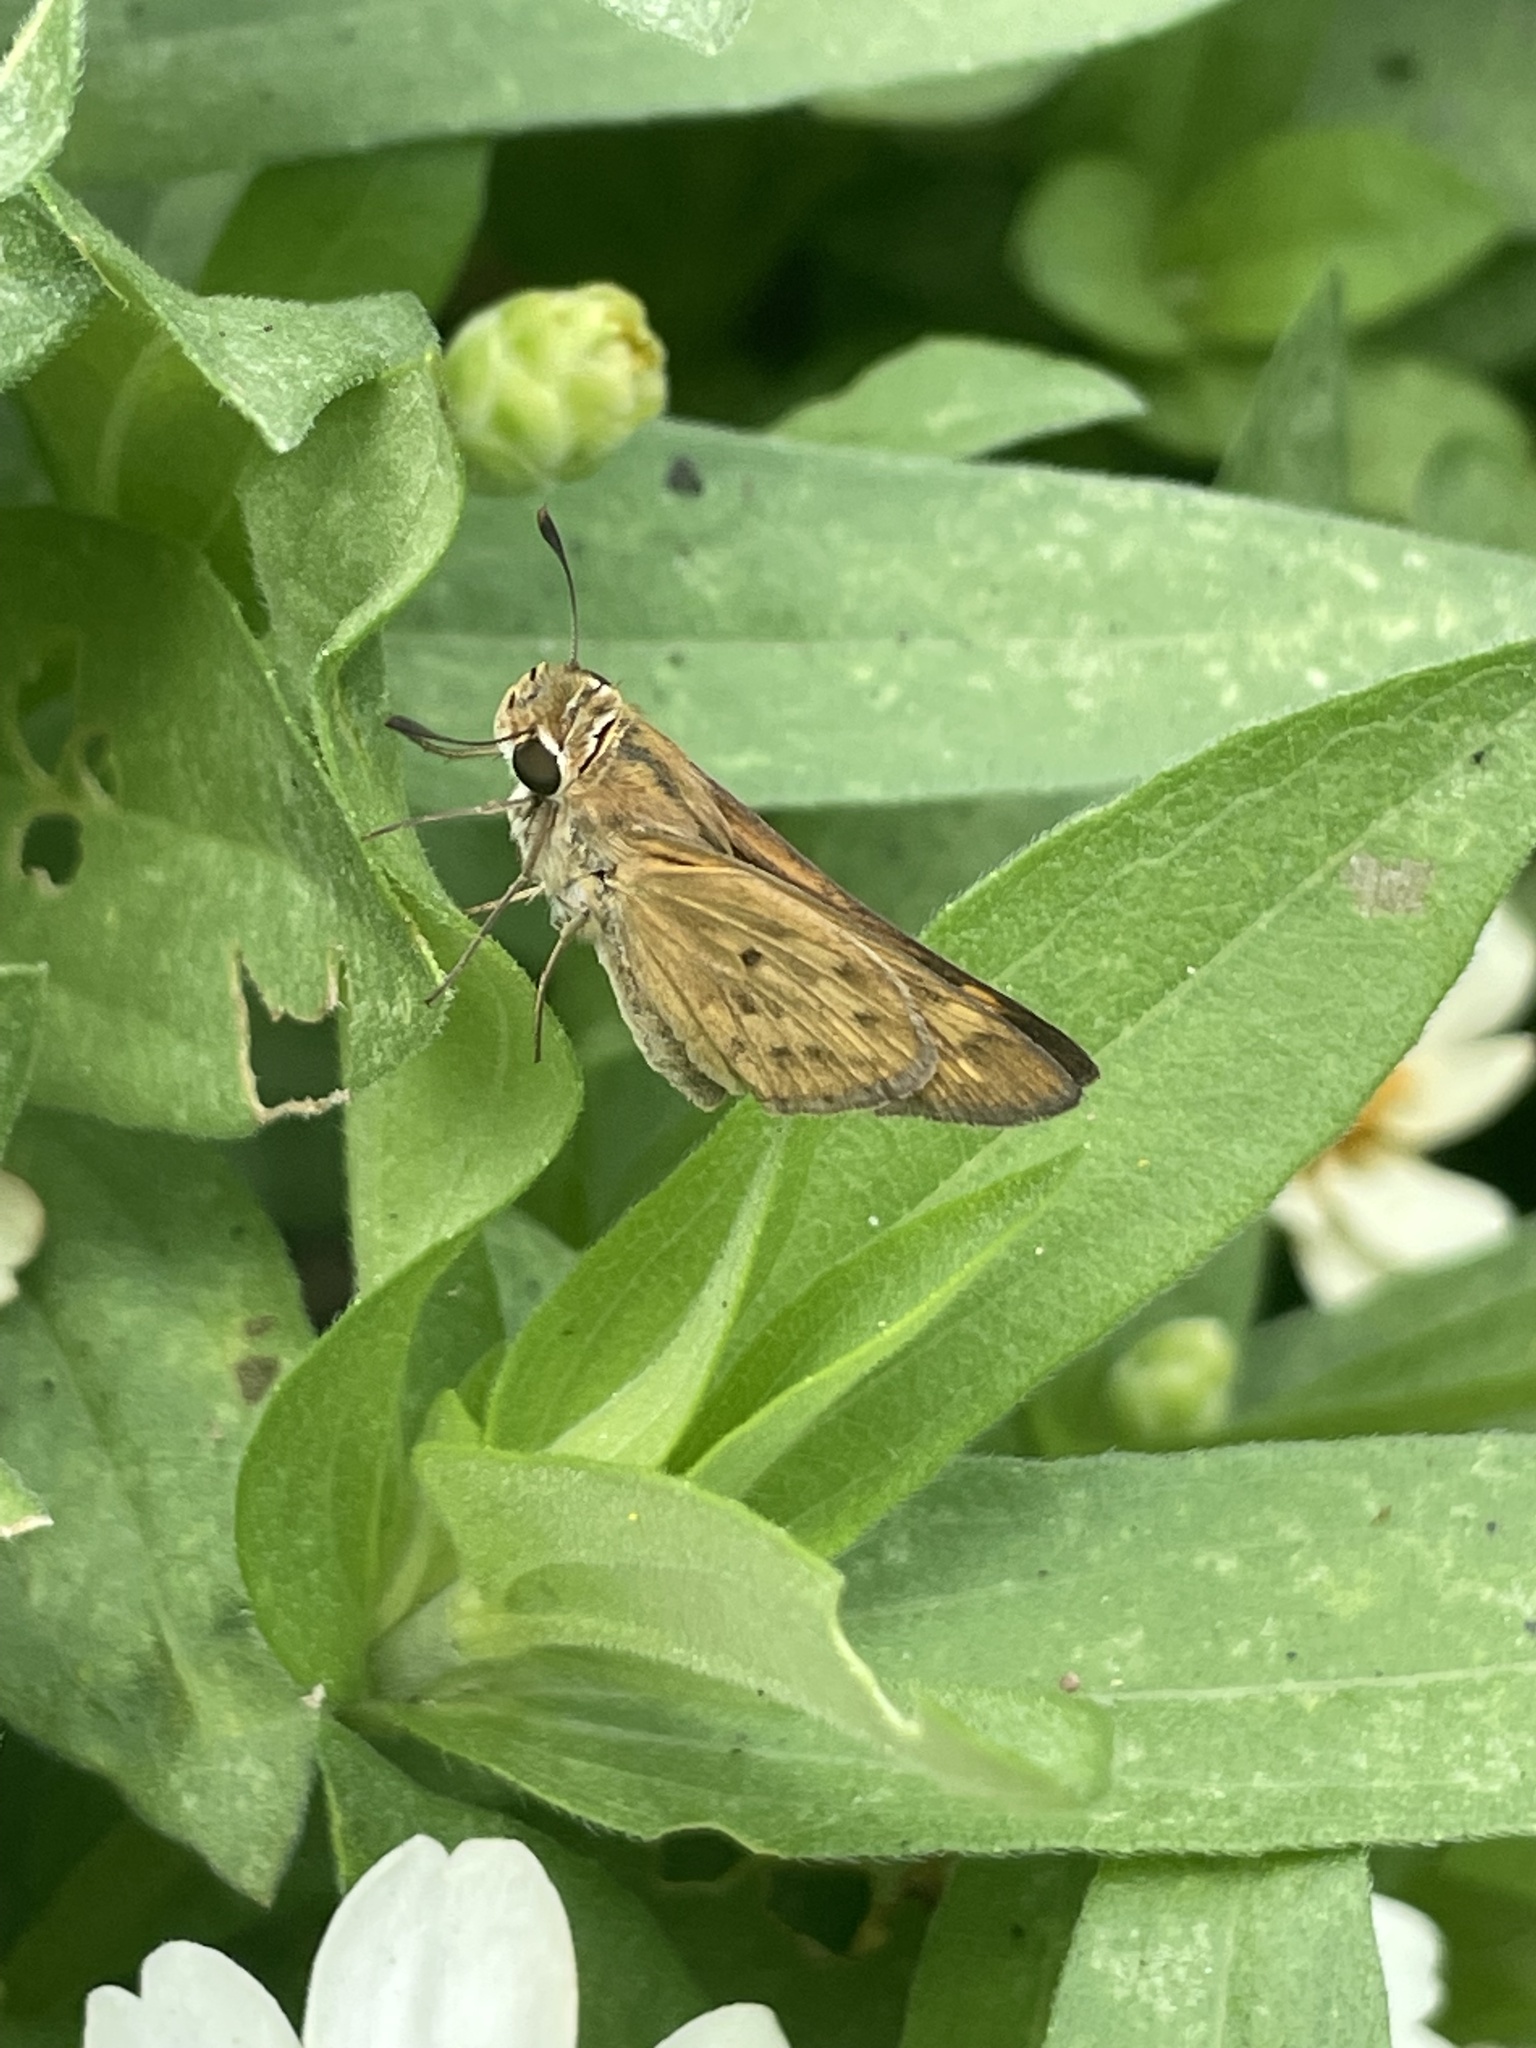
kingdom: Animalia
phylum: Arthropoda
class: Insecta
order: Lepidoptera
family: Hesperiidae
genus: Hylephila
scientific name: Hylephila phyleus
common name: Fiery skipper
